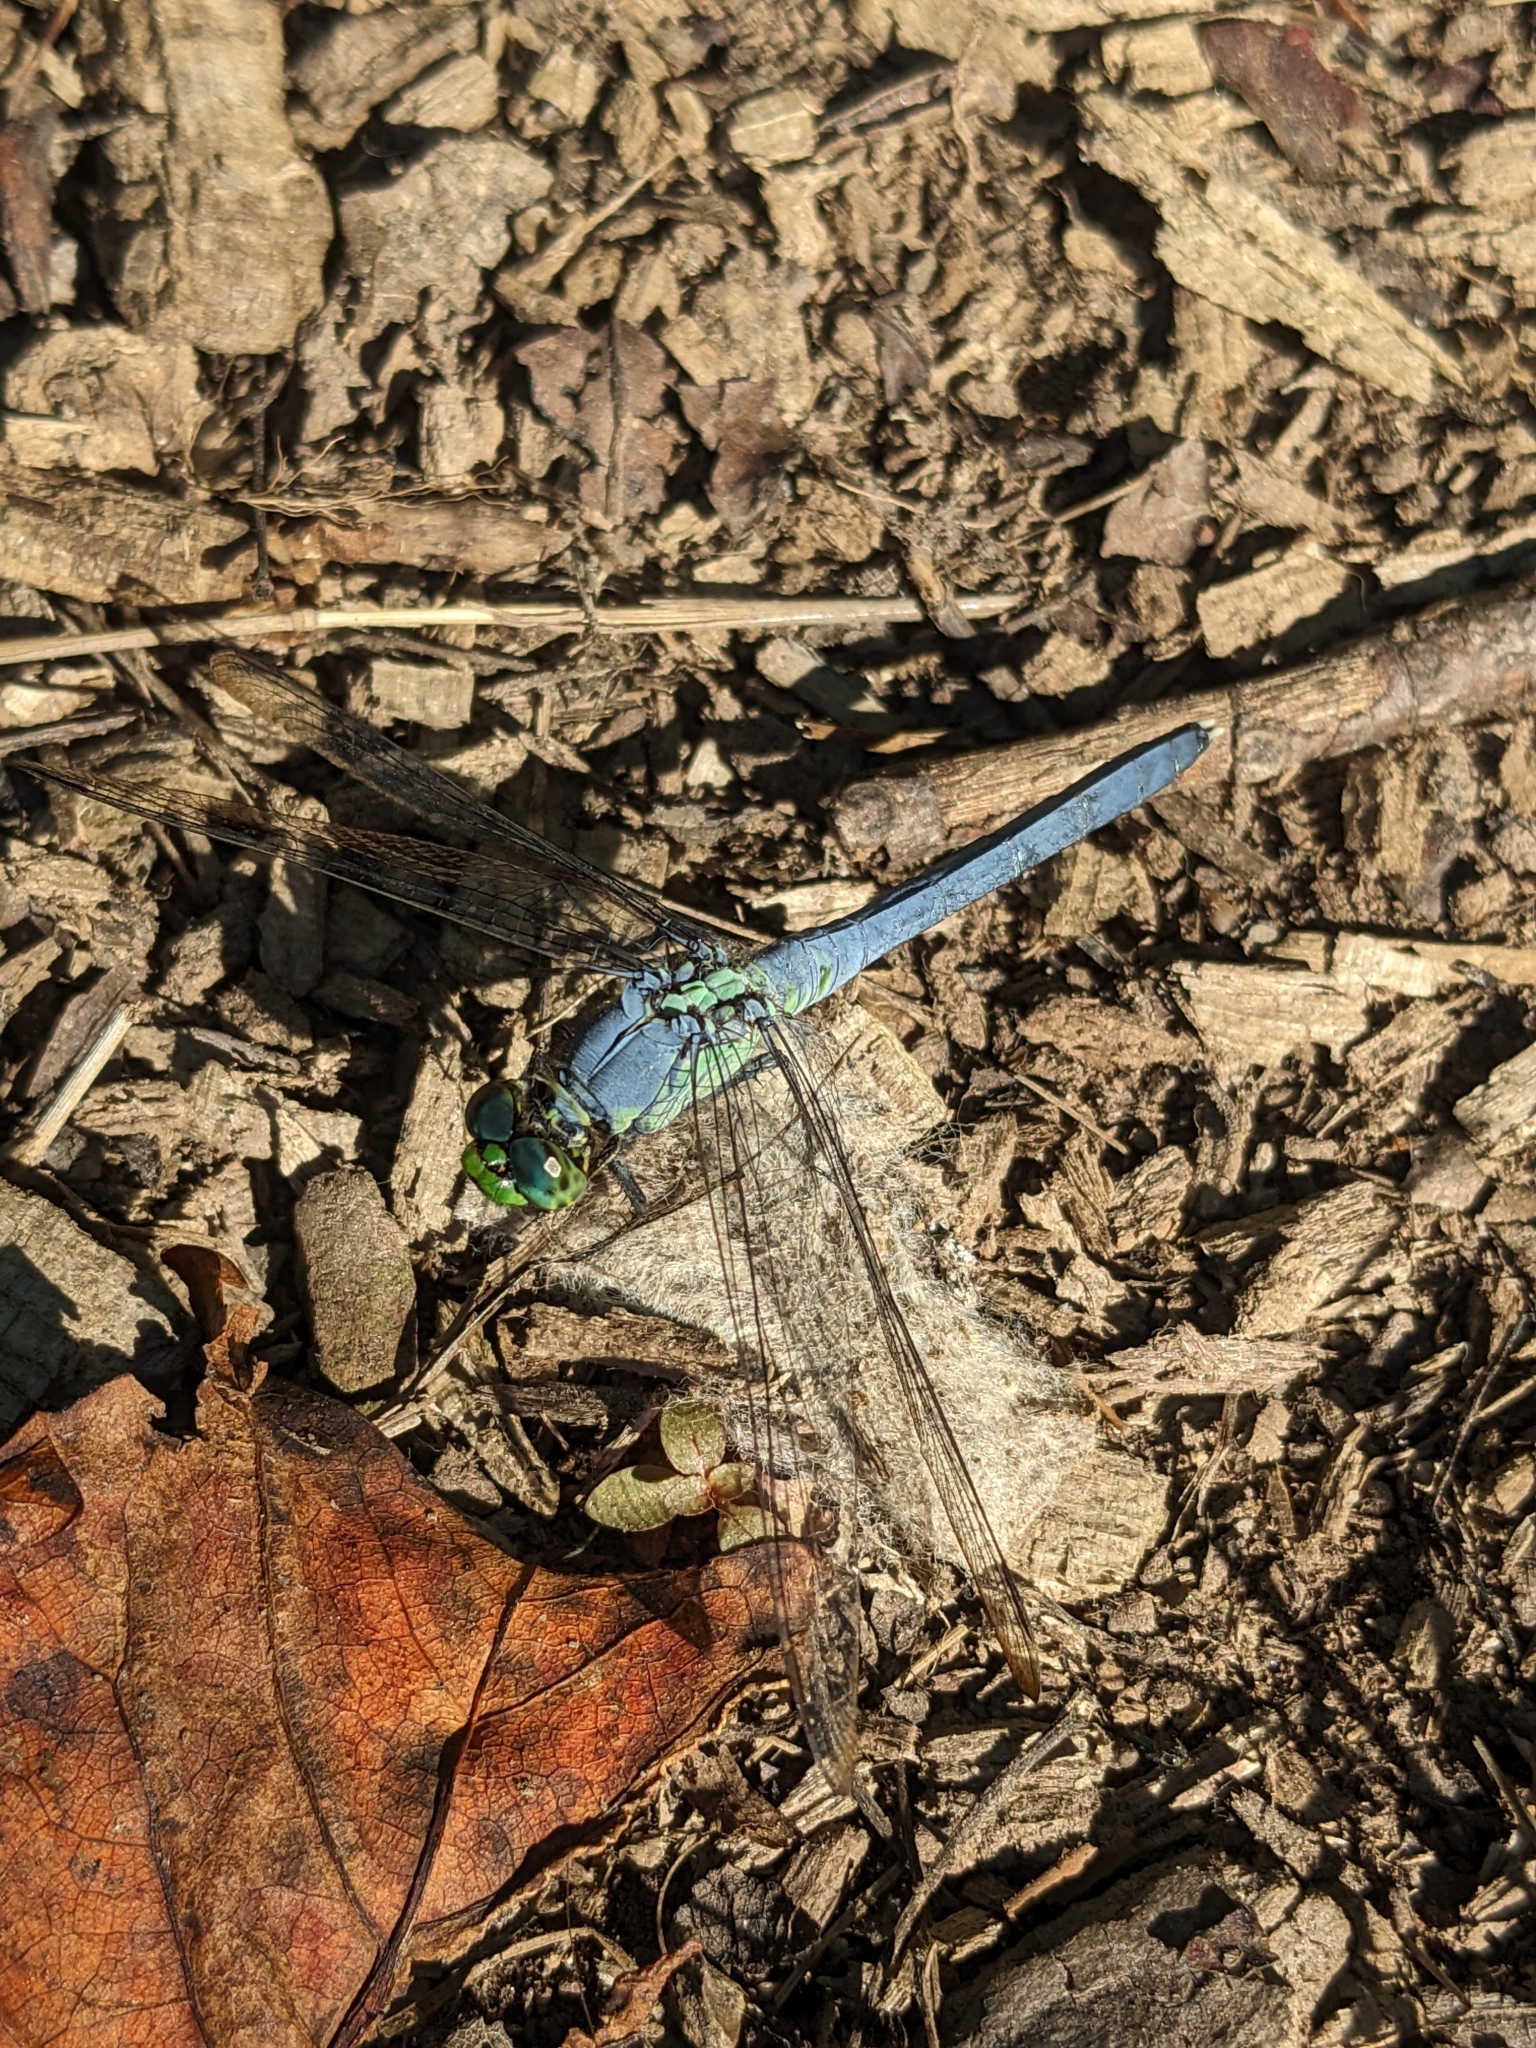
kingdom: Animalia
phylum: Arthropoda
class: Insecta
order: Odonata
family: Libellulidae
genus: Erythemis
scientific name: Erythemis simplicicollis
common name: Eastern pondhawk
